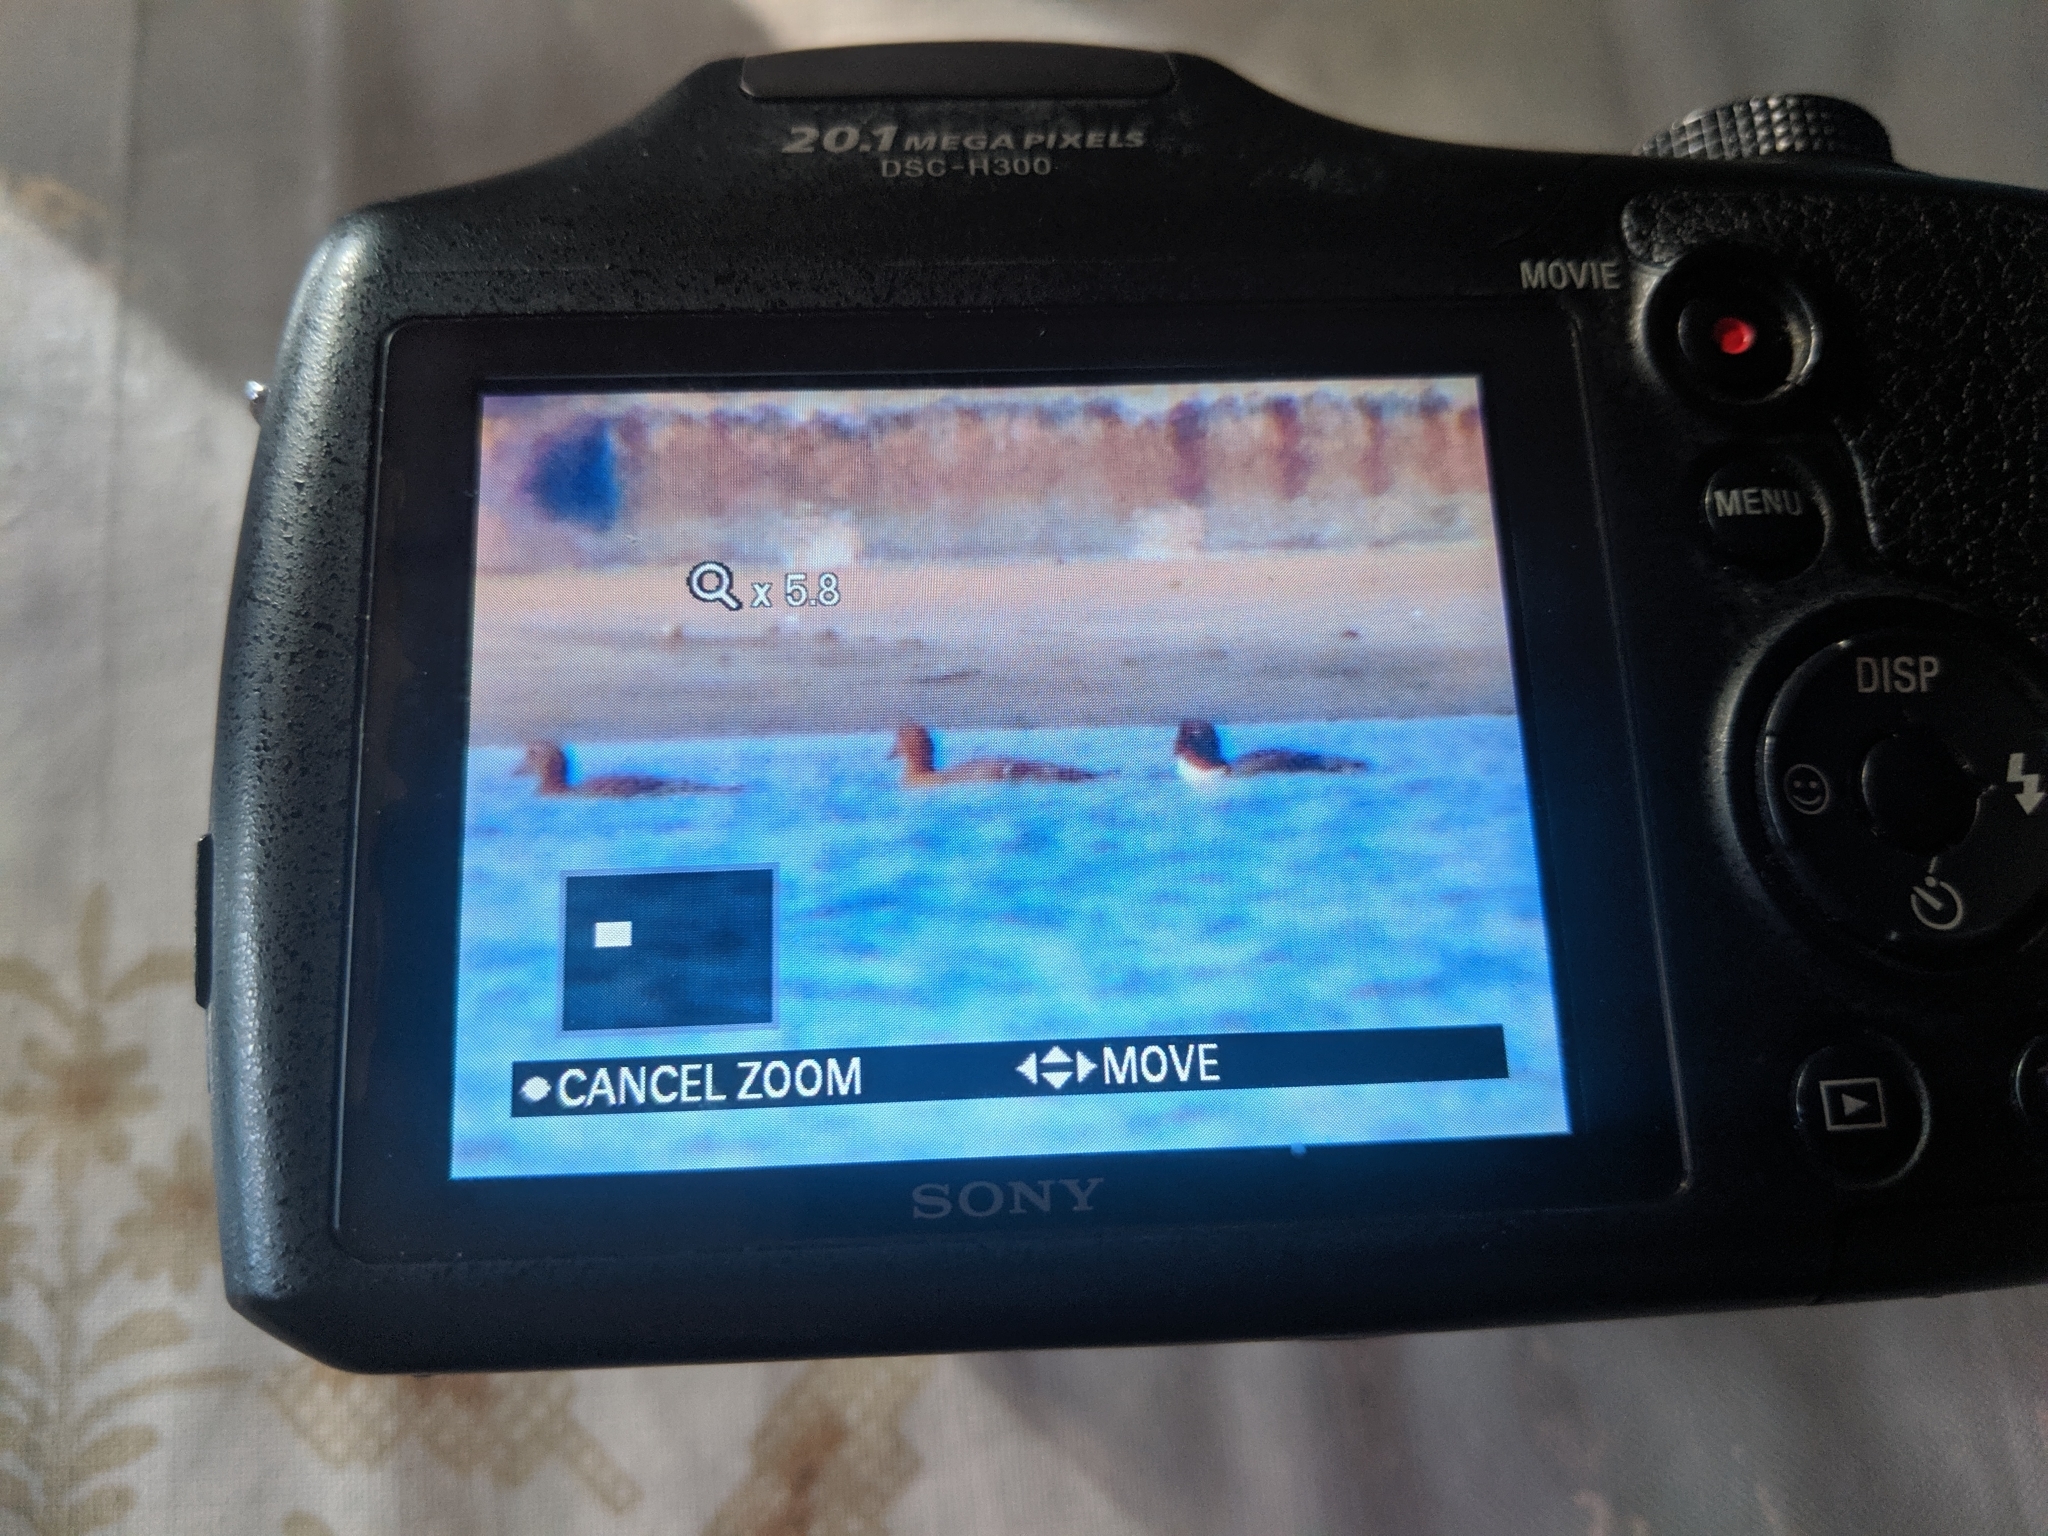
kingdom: Animalia
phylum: Chordata
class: Aves
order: Anseriformes
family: Anatidae
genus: Somateria
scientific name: Somateria mollissima
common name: Common eider
